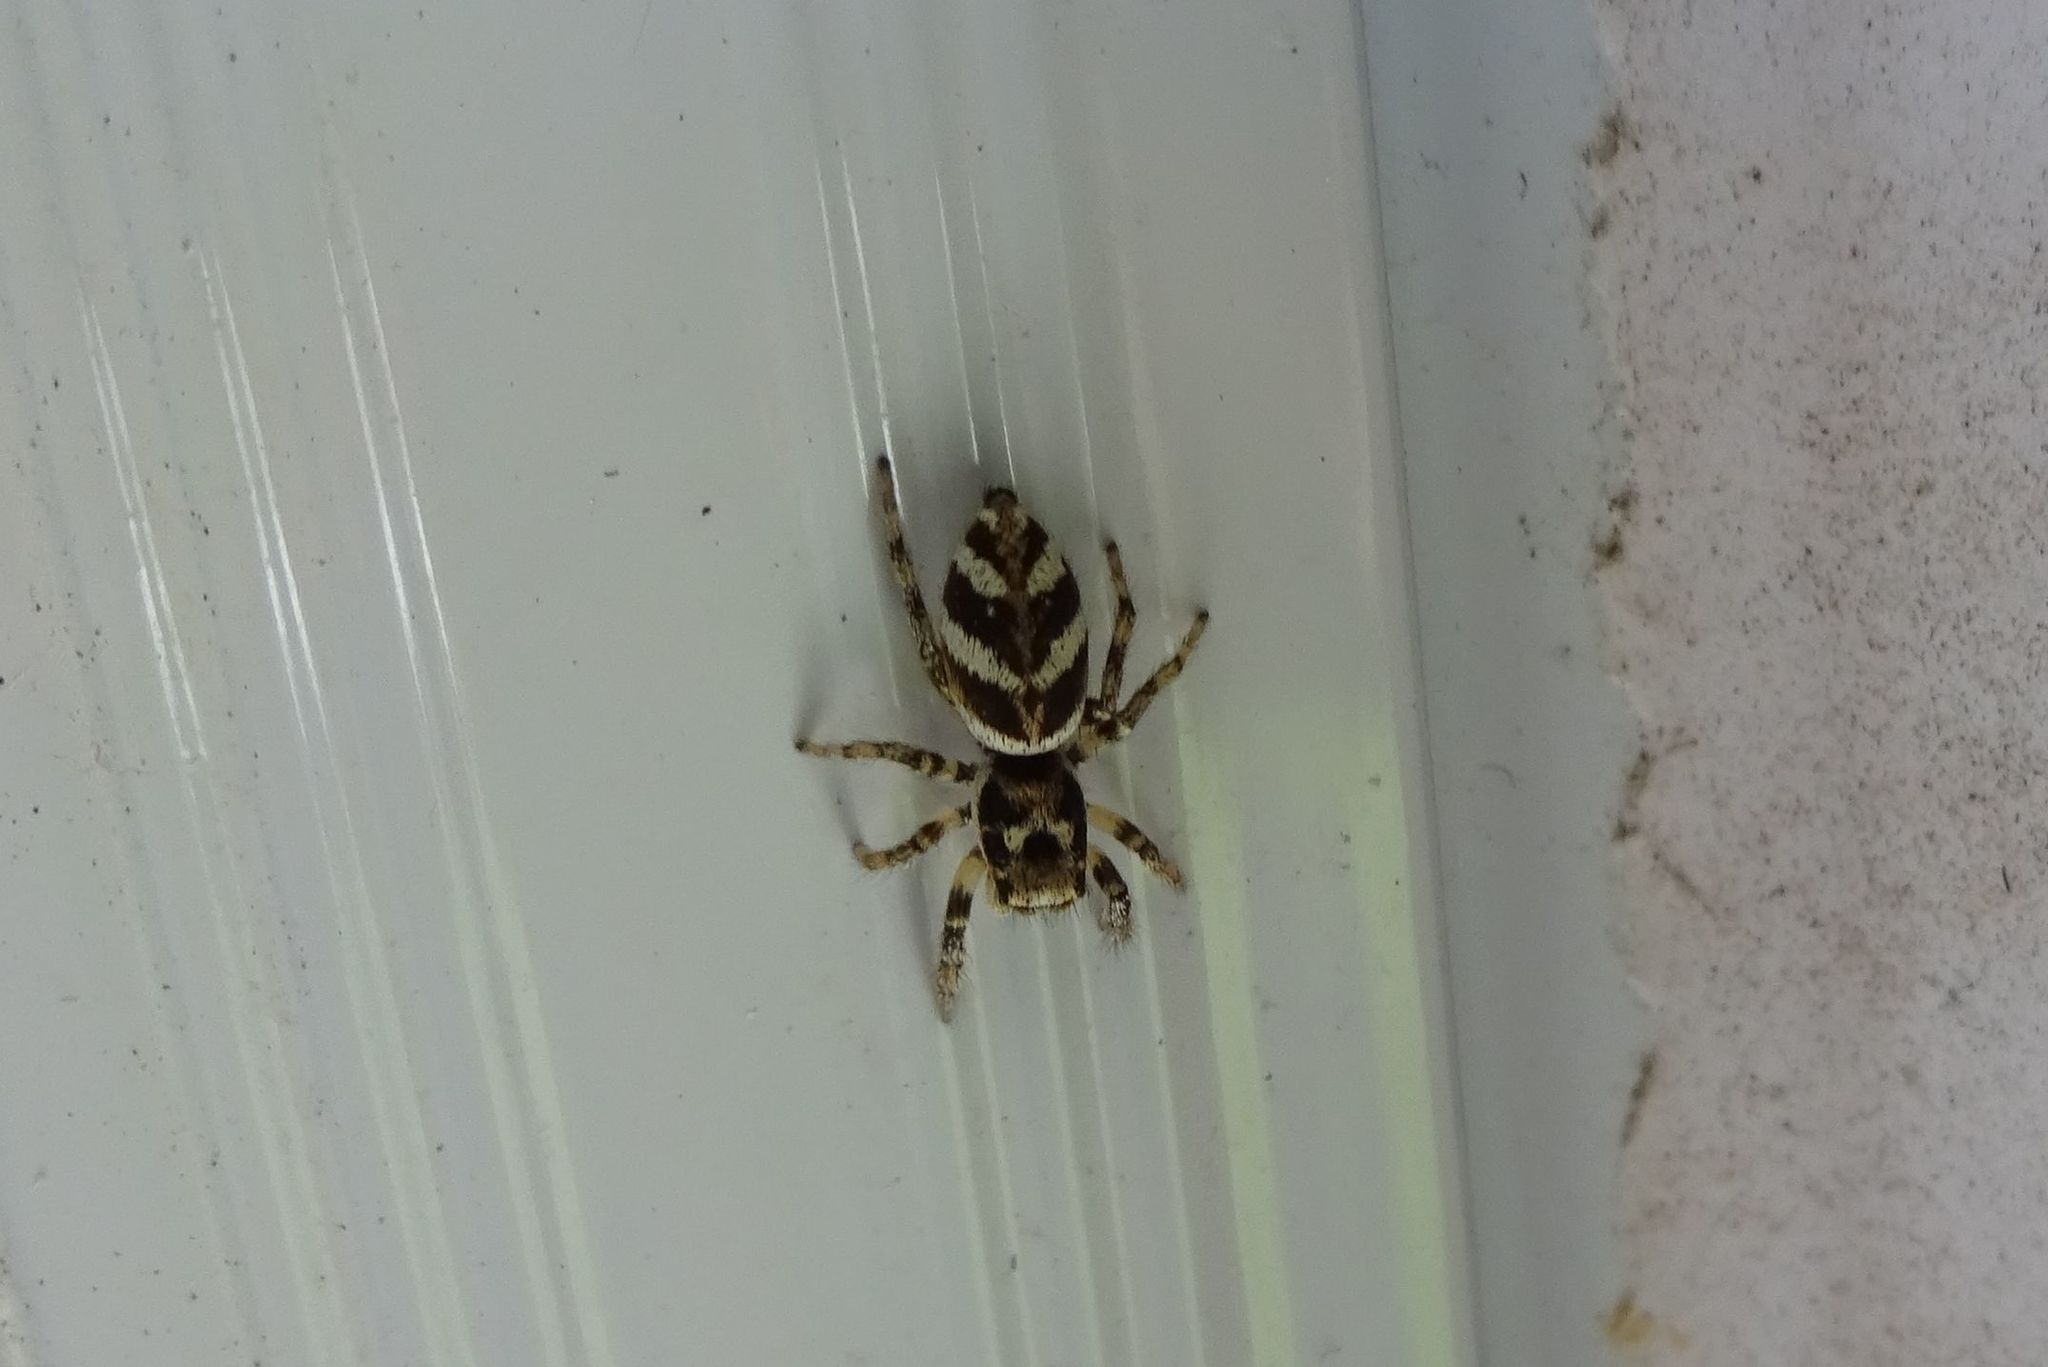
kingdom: Animalia
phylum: Arthropoda
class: Arachnida
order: Araneae
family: Salticidae
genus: Salticus
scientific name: Salticus scenicus
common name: Zebra jumper
